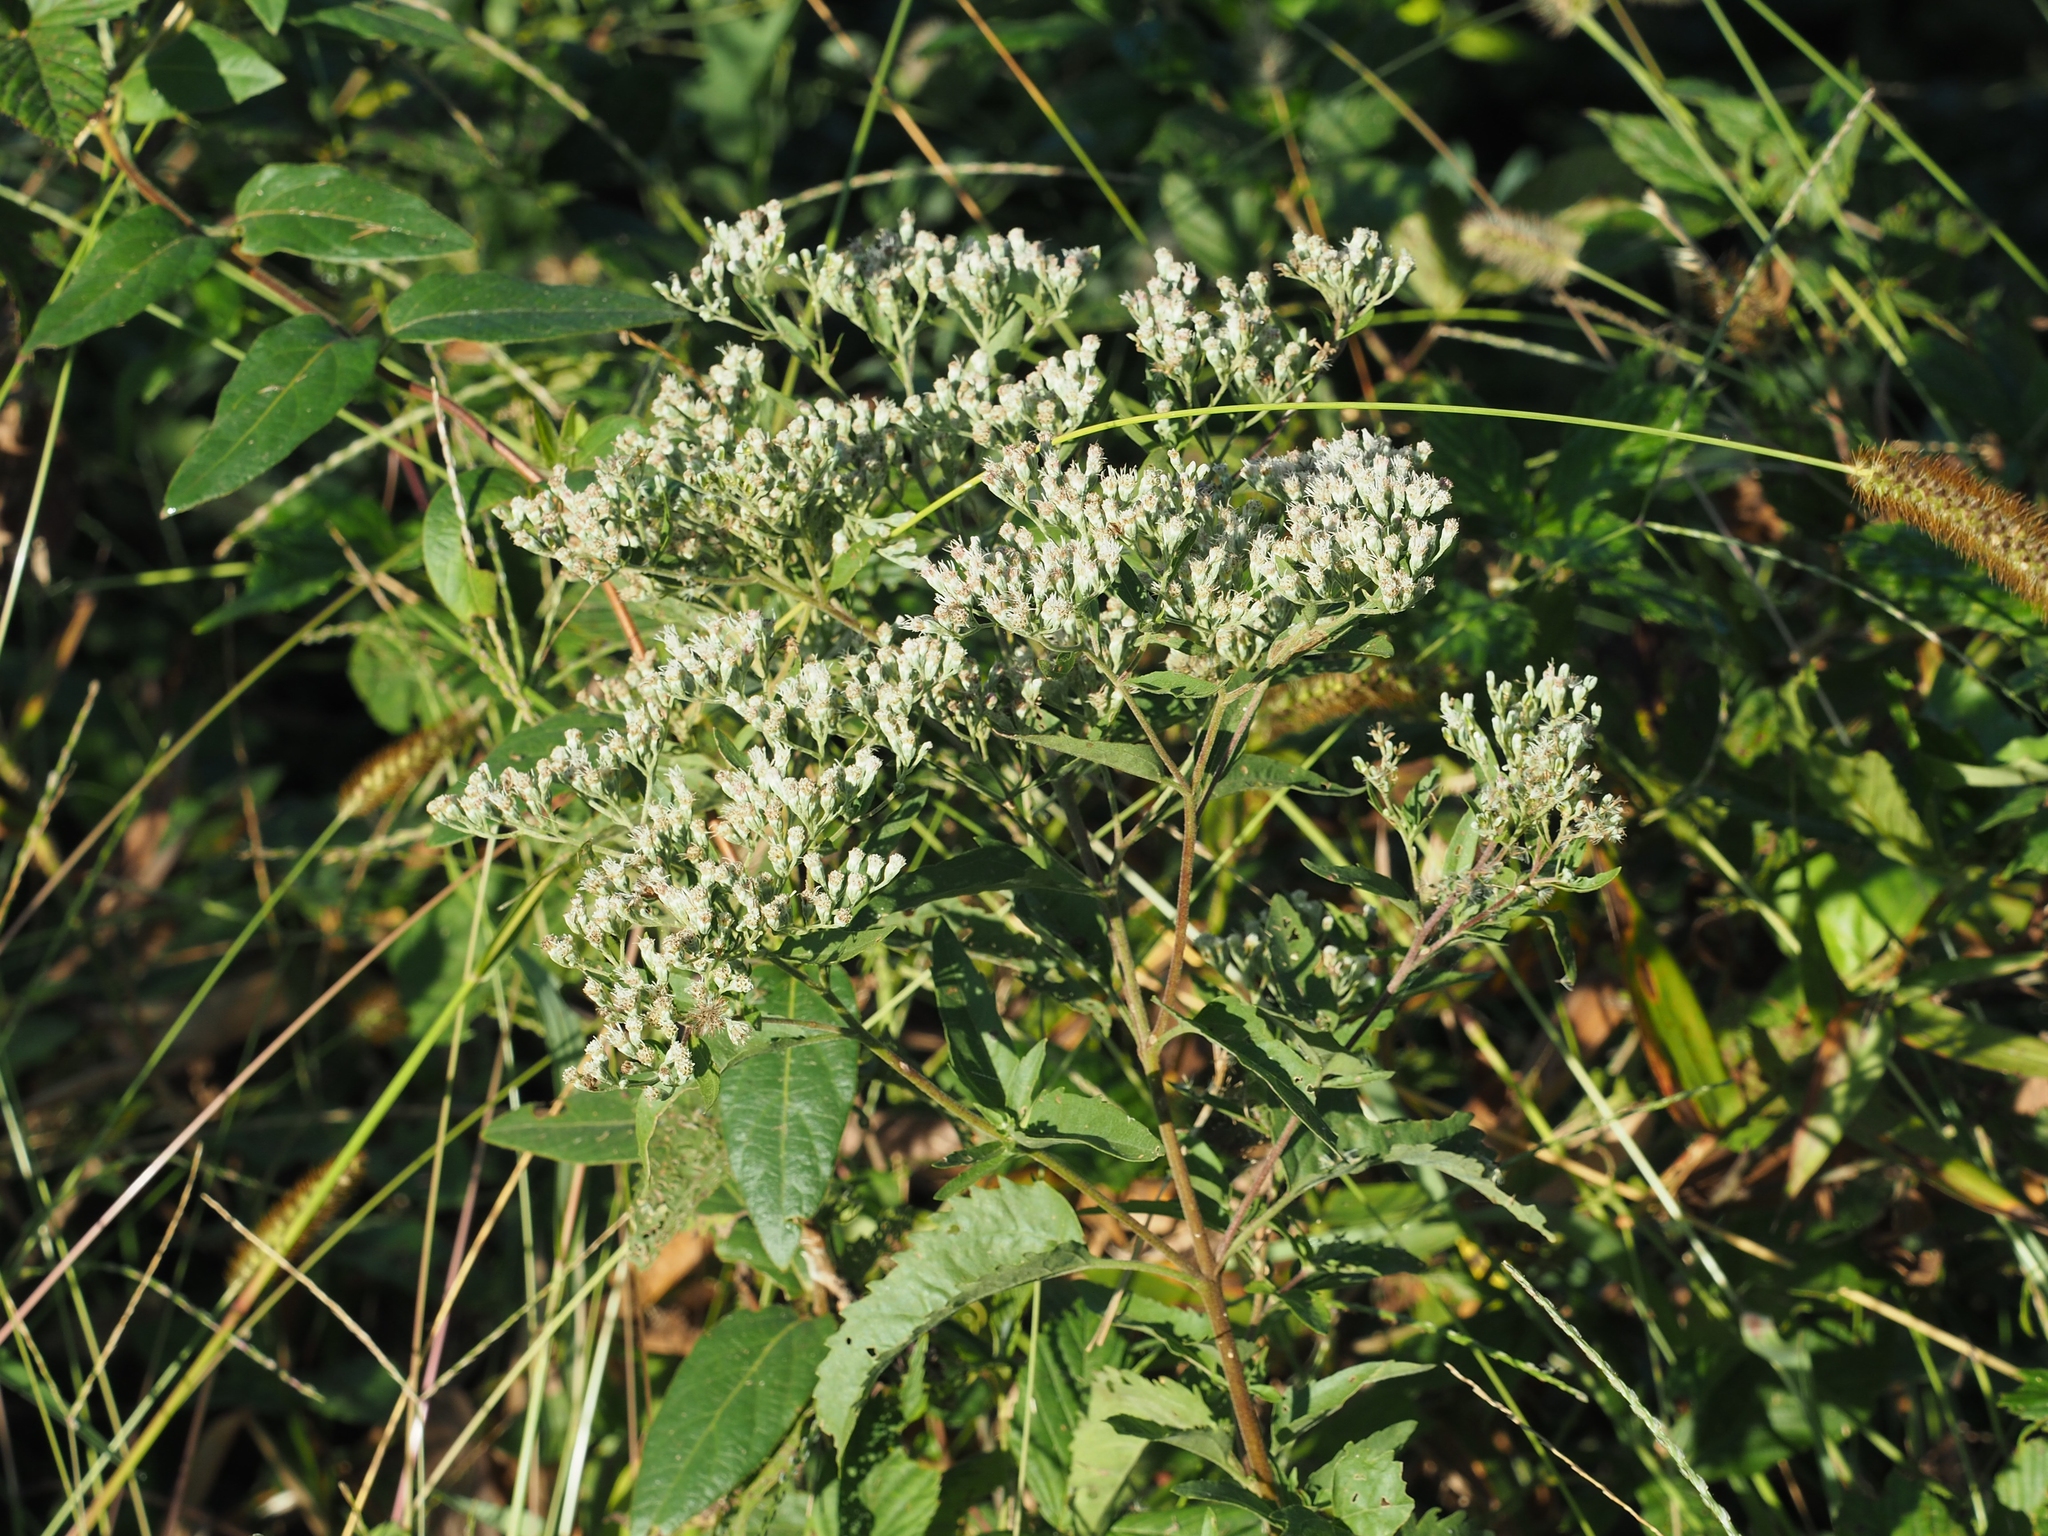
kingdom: Plantae
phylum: Tracheophyta
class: Magnoliopsida
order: Asterales
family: Asteraceae
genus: Eupatorium
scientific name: Eupatorium serotinum
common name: Late boneset
